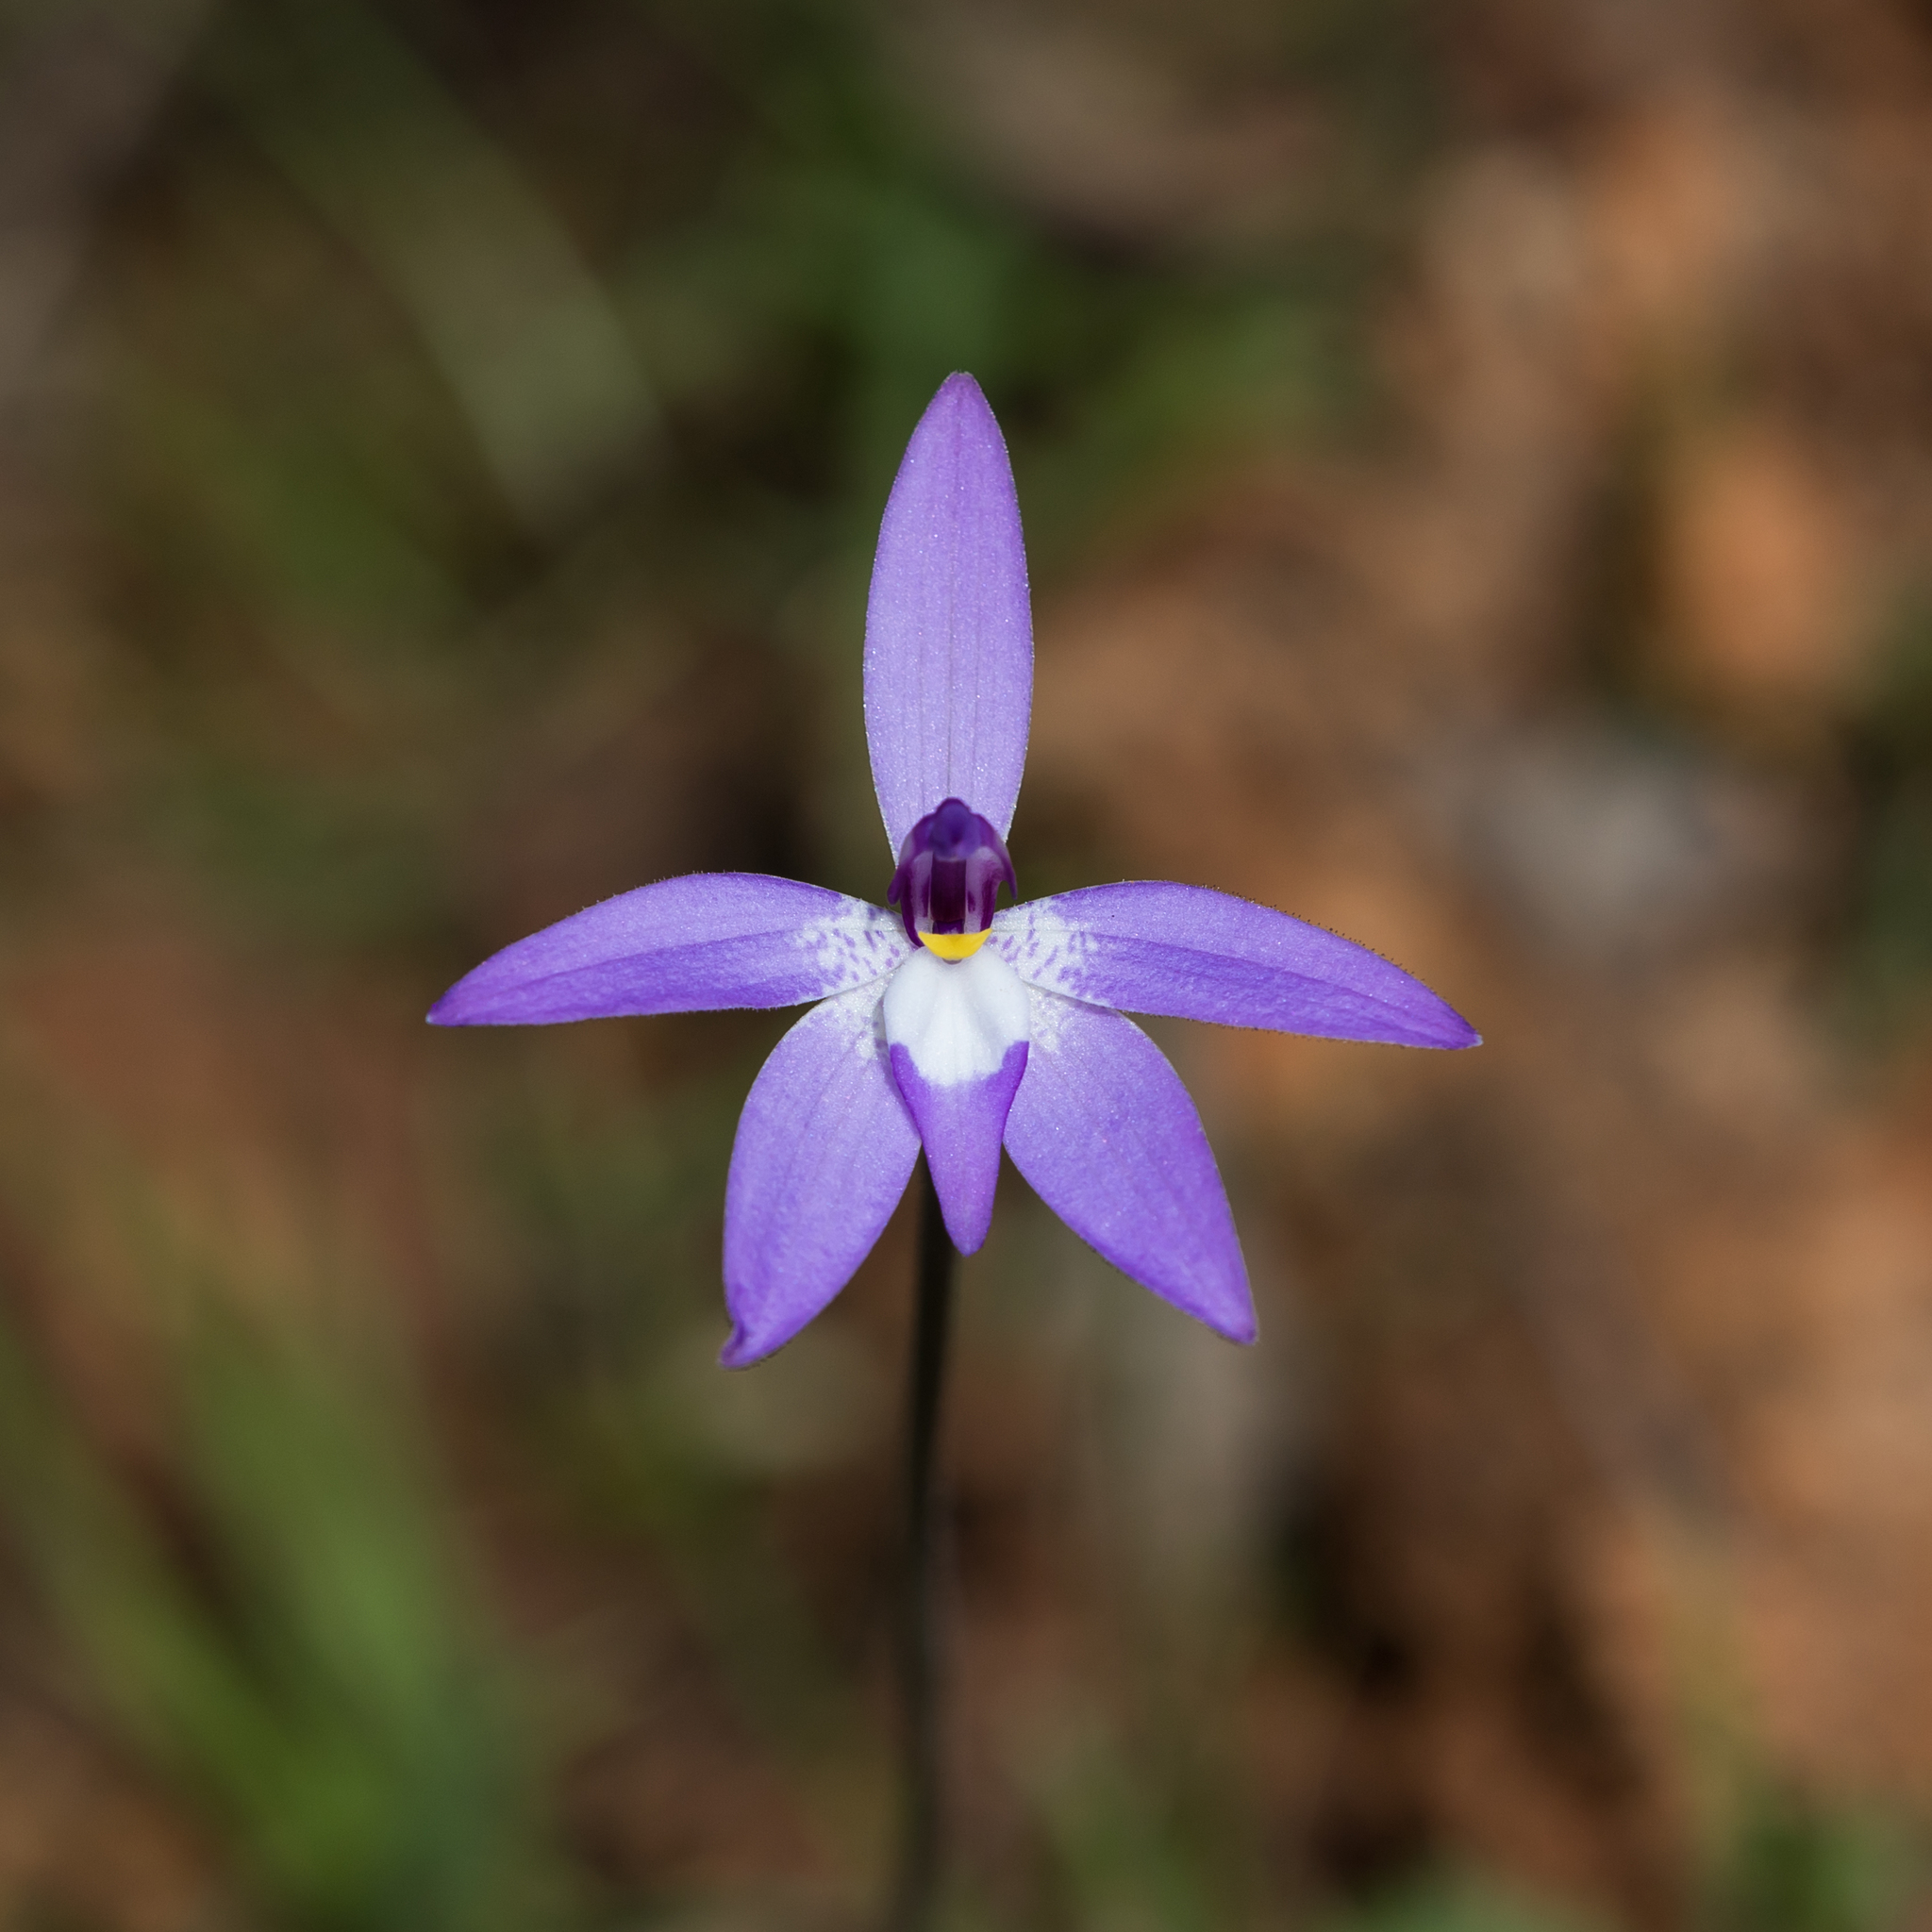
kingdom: Plantae
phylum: Tracheophyta
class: Liliopsida
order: Asparagales
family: Orchidaceae
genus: Caladenia
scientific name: Caladenia major
